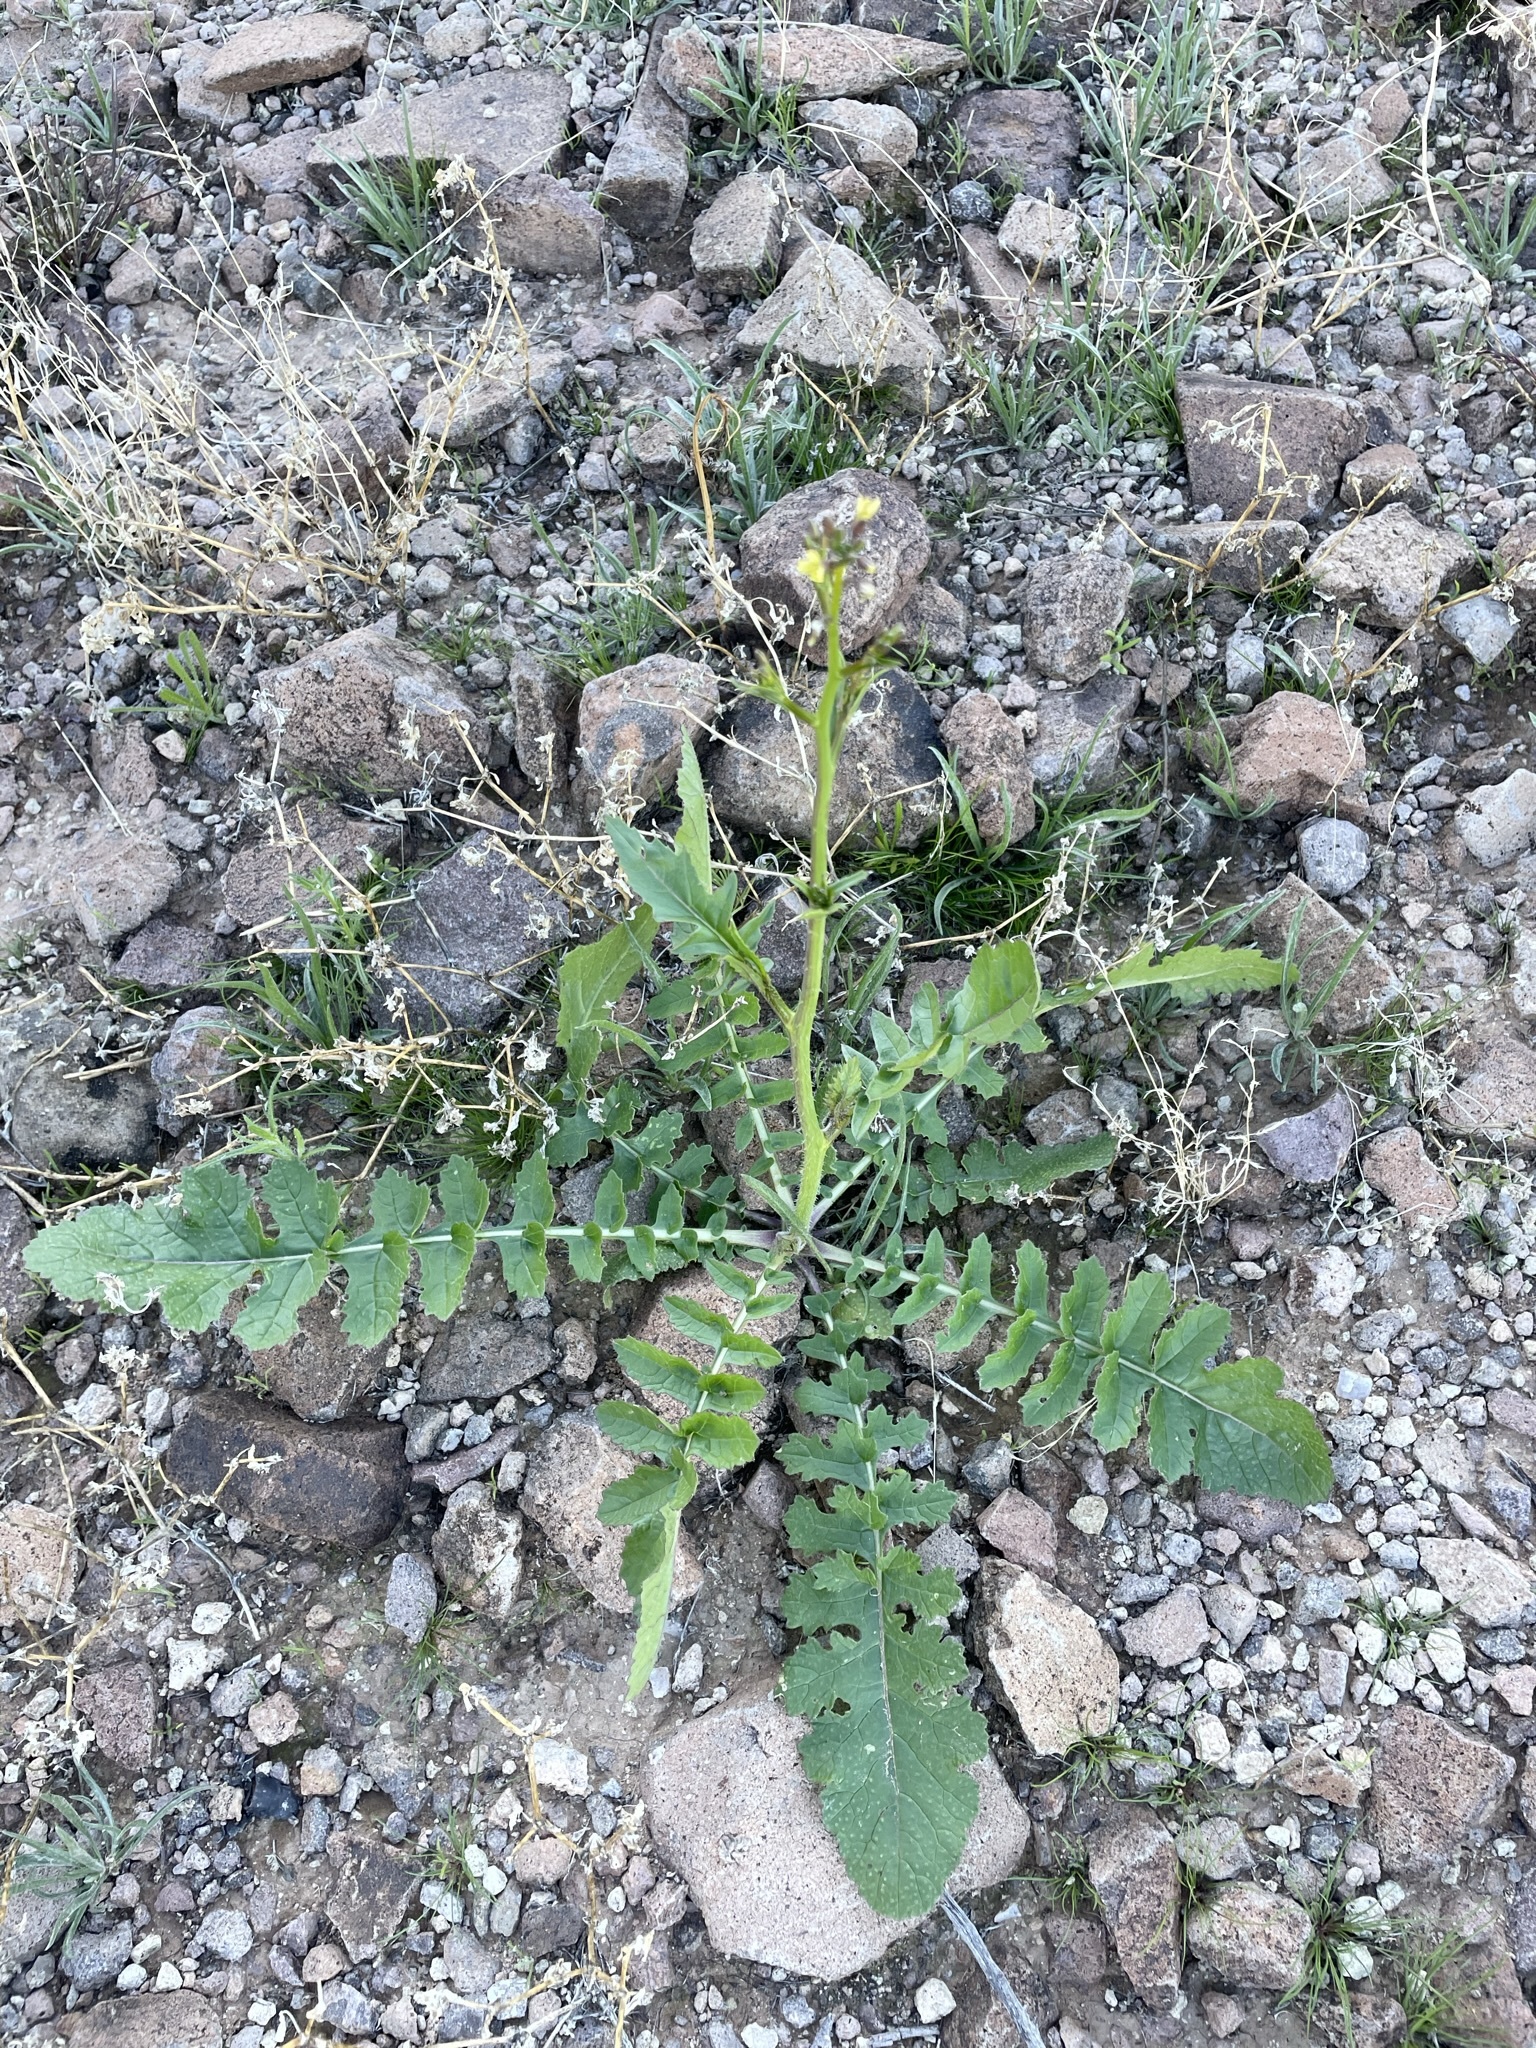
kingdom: Plantae
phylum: Tracheophyta
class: Magnoliopsida
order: Brassicales
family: Brassicaceae
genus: Brassica
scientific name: Brassica tournefortii
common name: Pale cabbage
